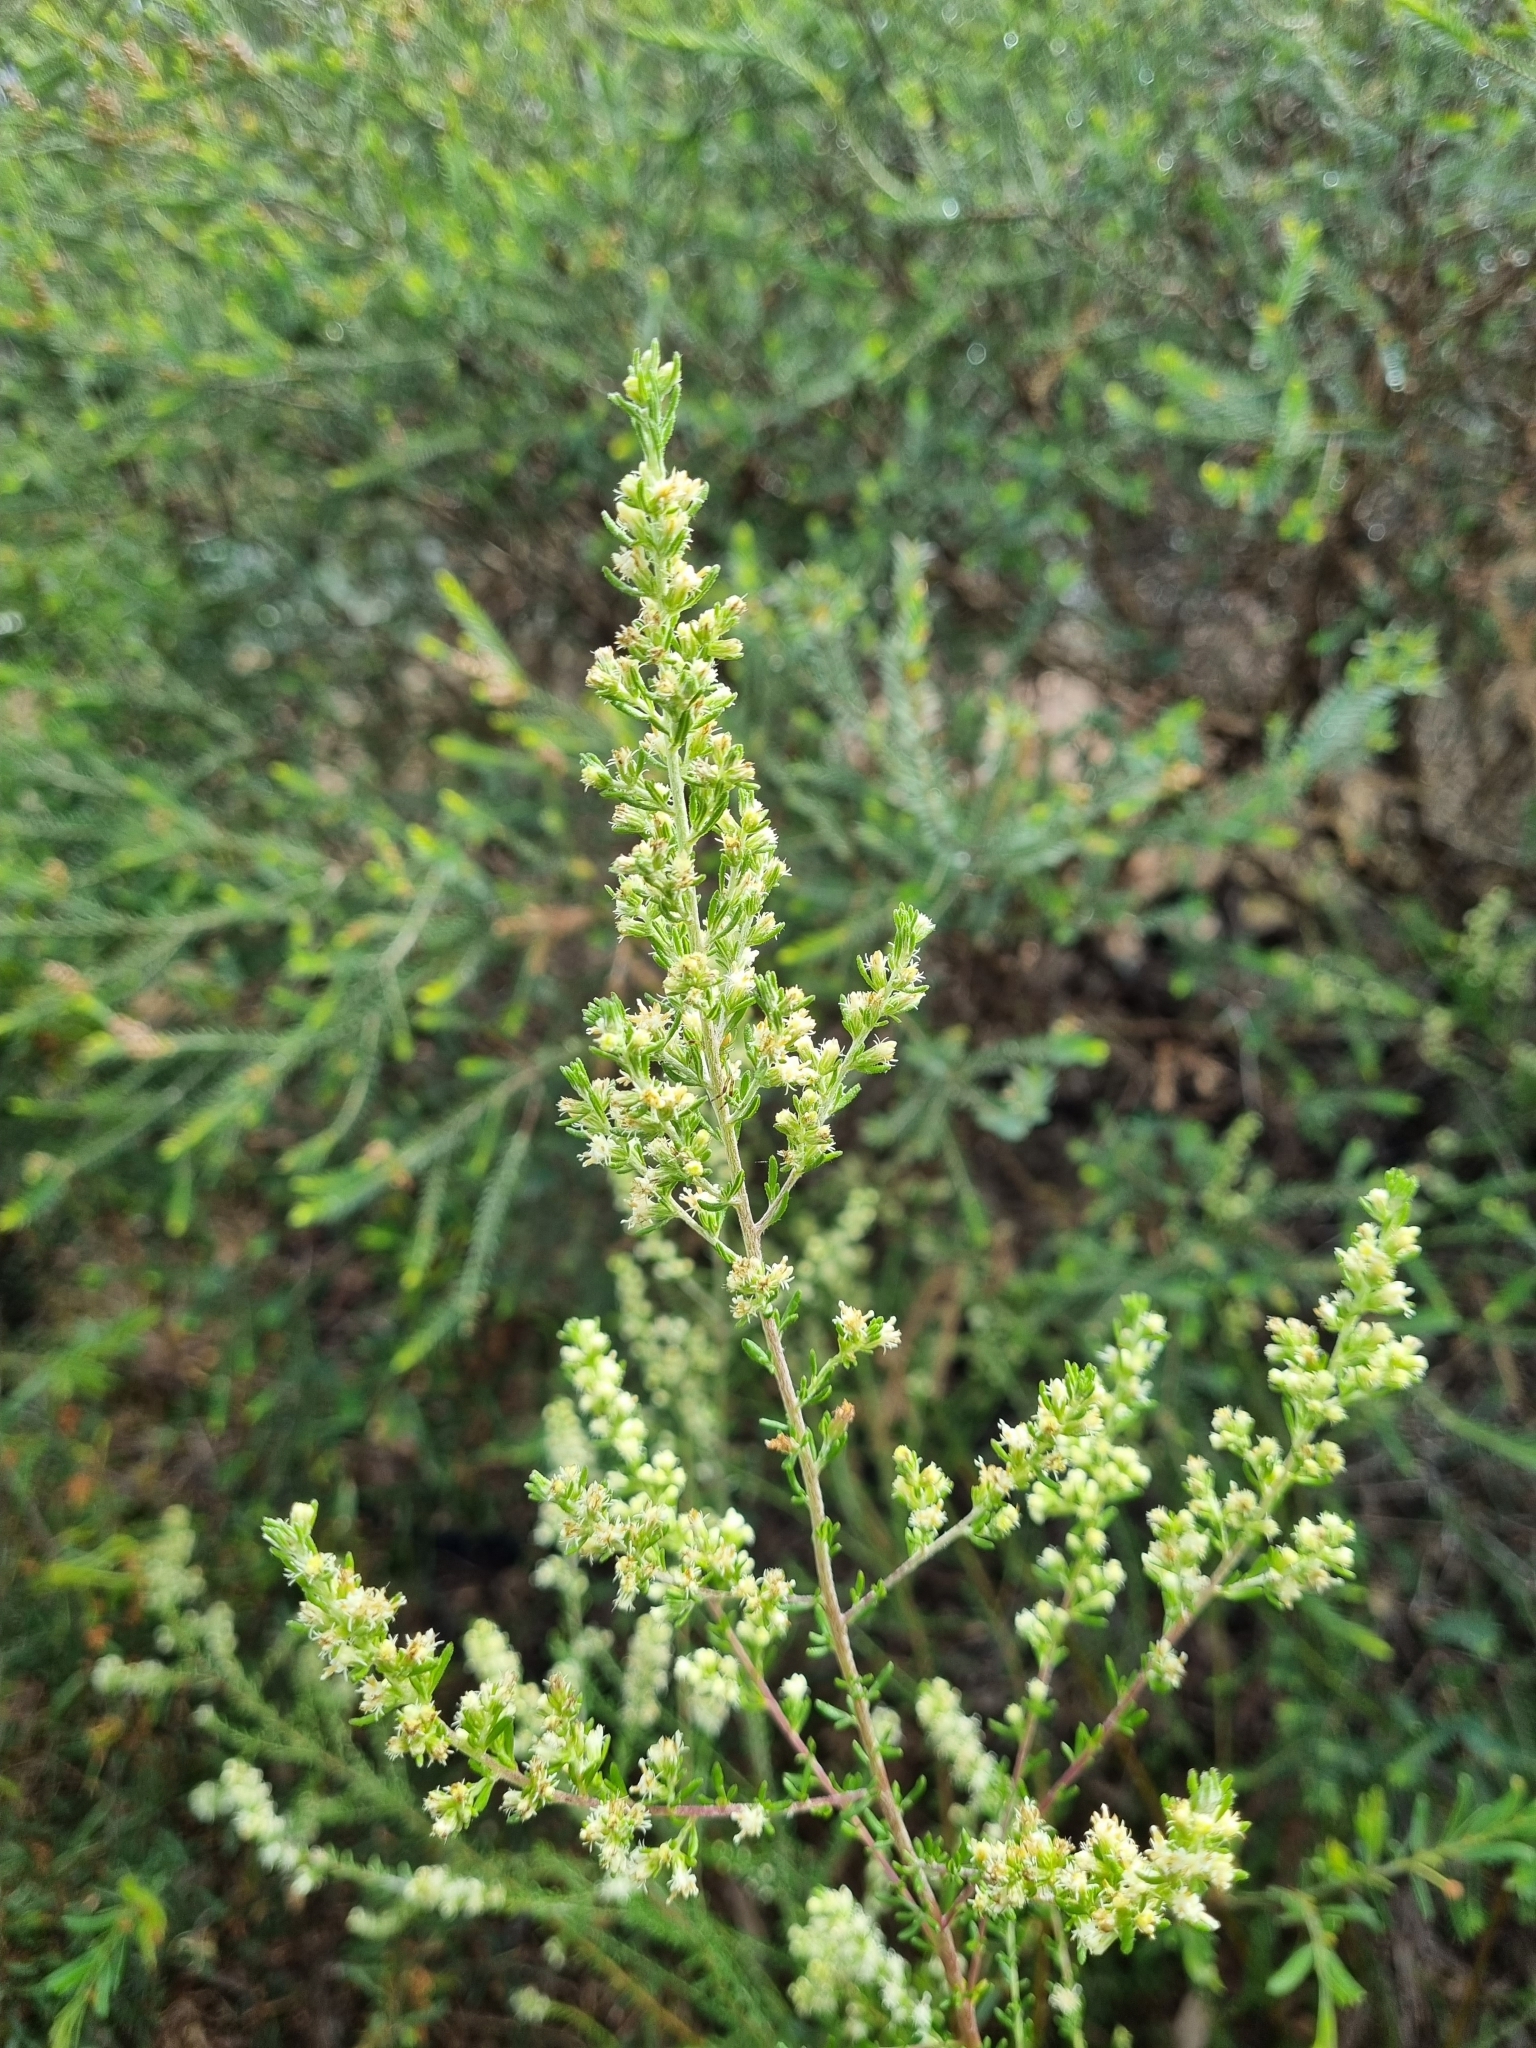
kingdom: Plantae
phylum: Tracheophyta
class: Magnoliopsida
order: Asterales
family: Asteraceae
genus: Olearia
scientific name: Olearia tubuliflora
